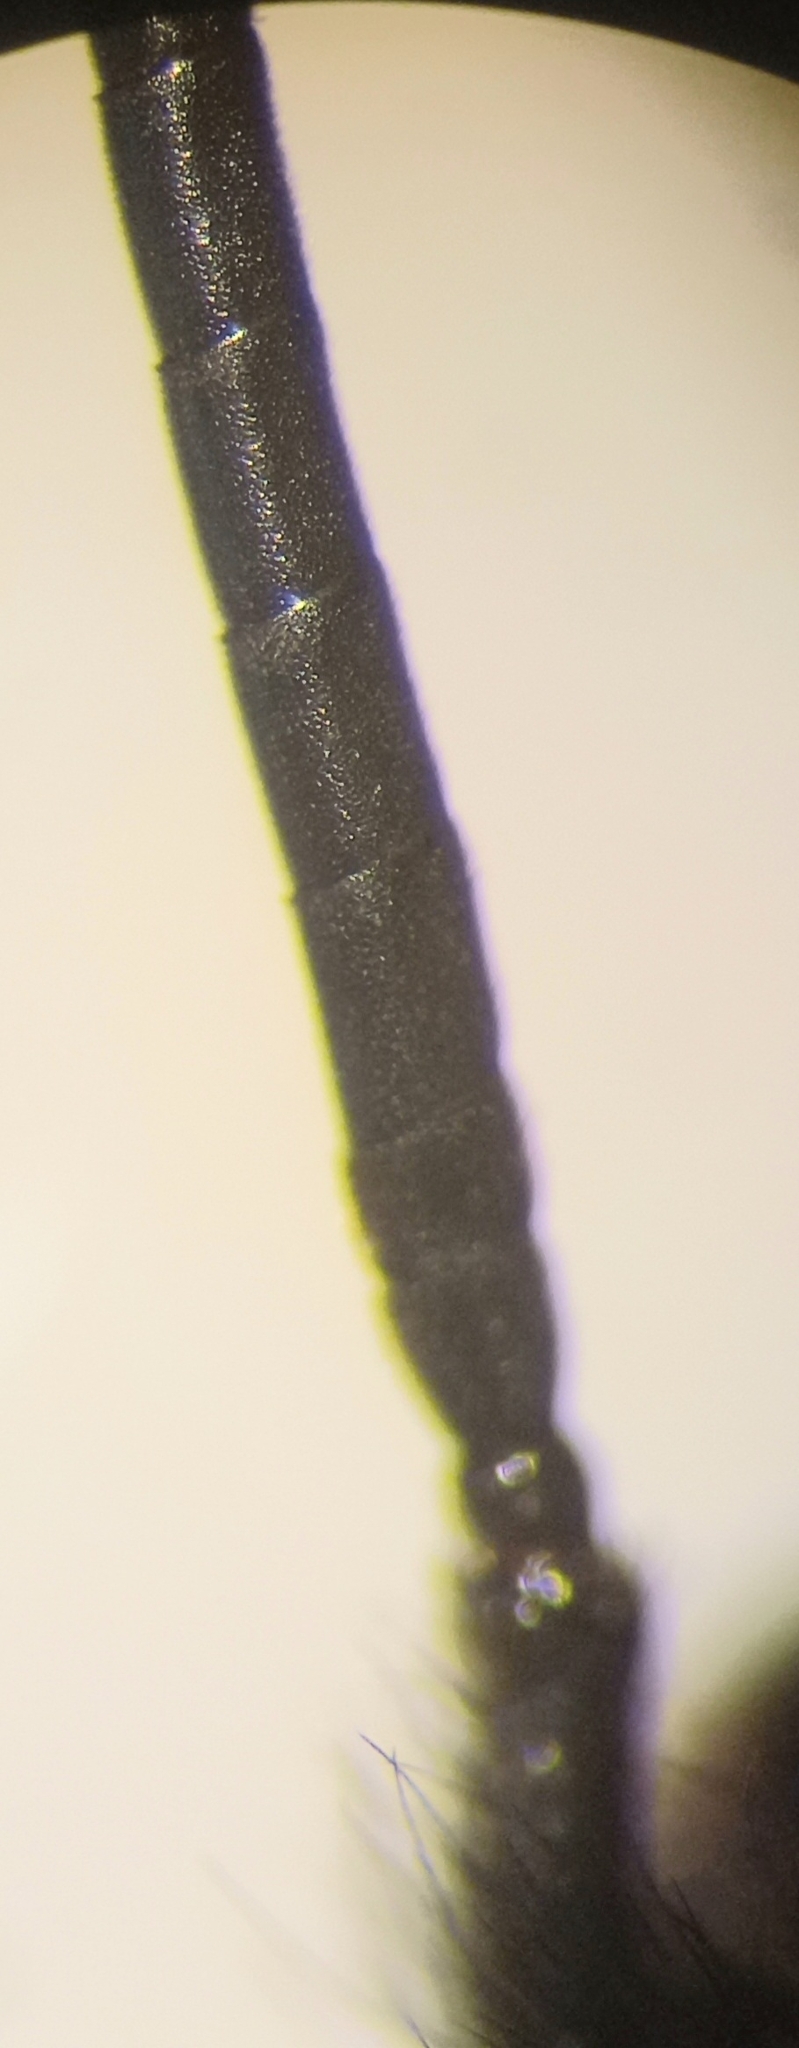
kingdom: Animalia
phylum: Arthropoda
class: Insecta
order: Hymenoptera
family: Apidae
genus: Bombus
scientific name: Bombus vestalis
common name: Vestal cuckoo bee
